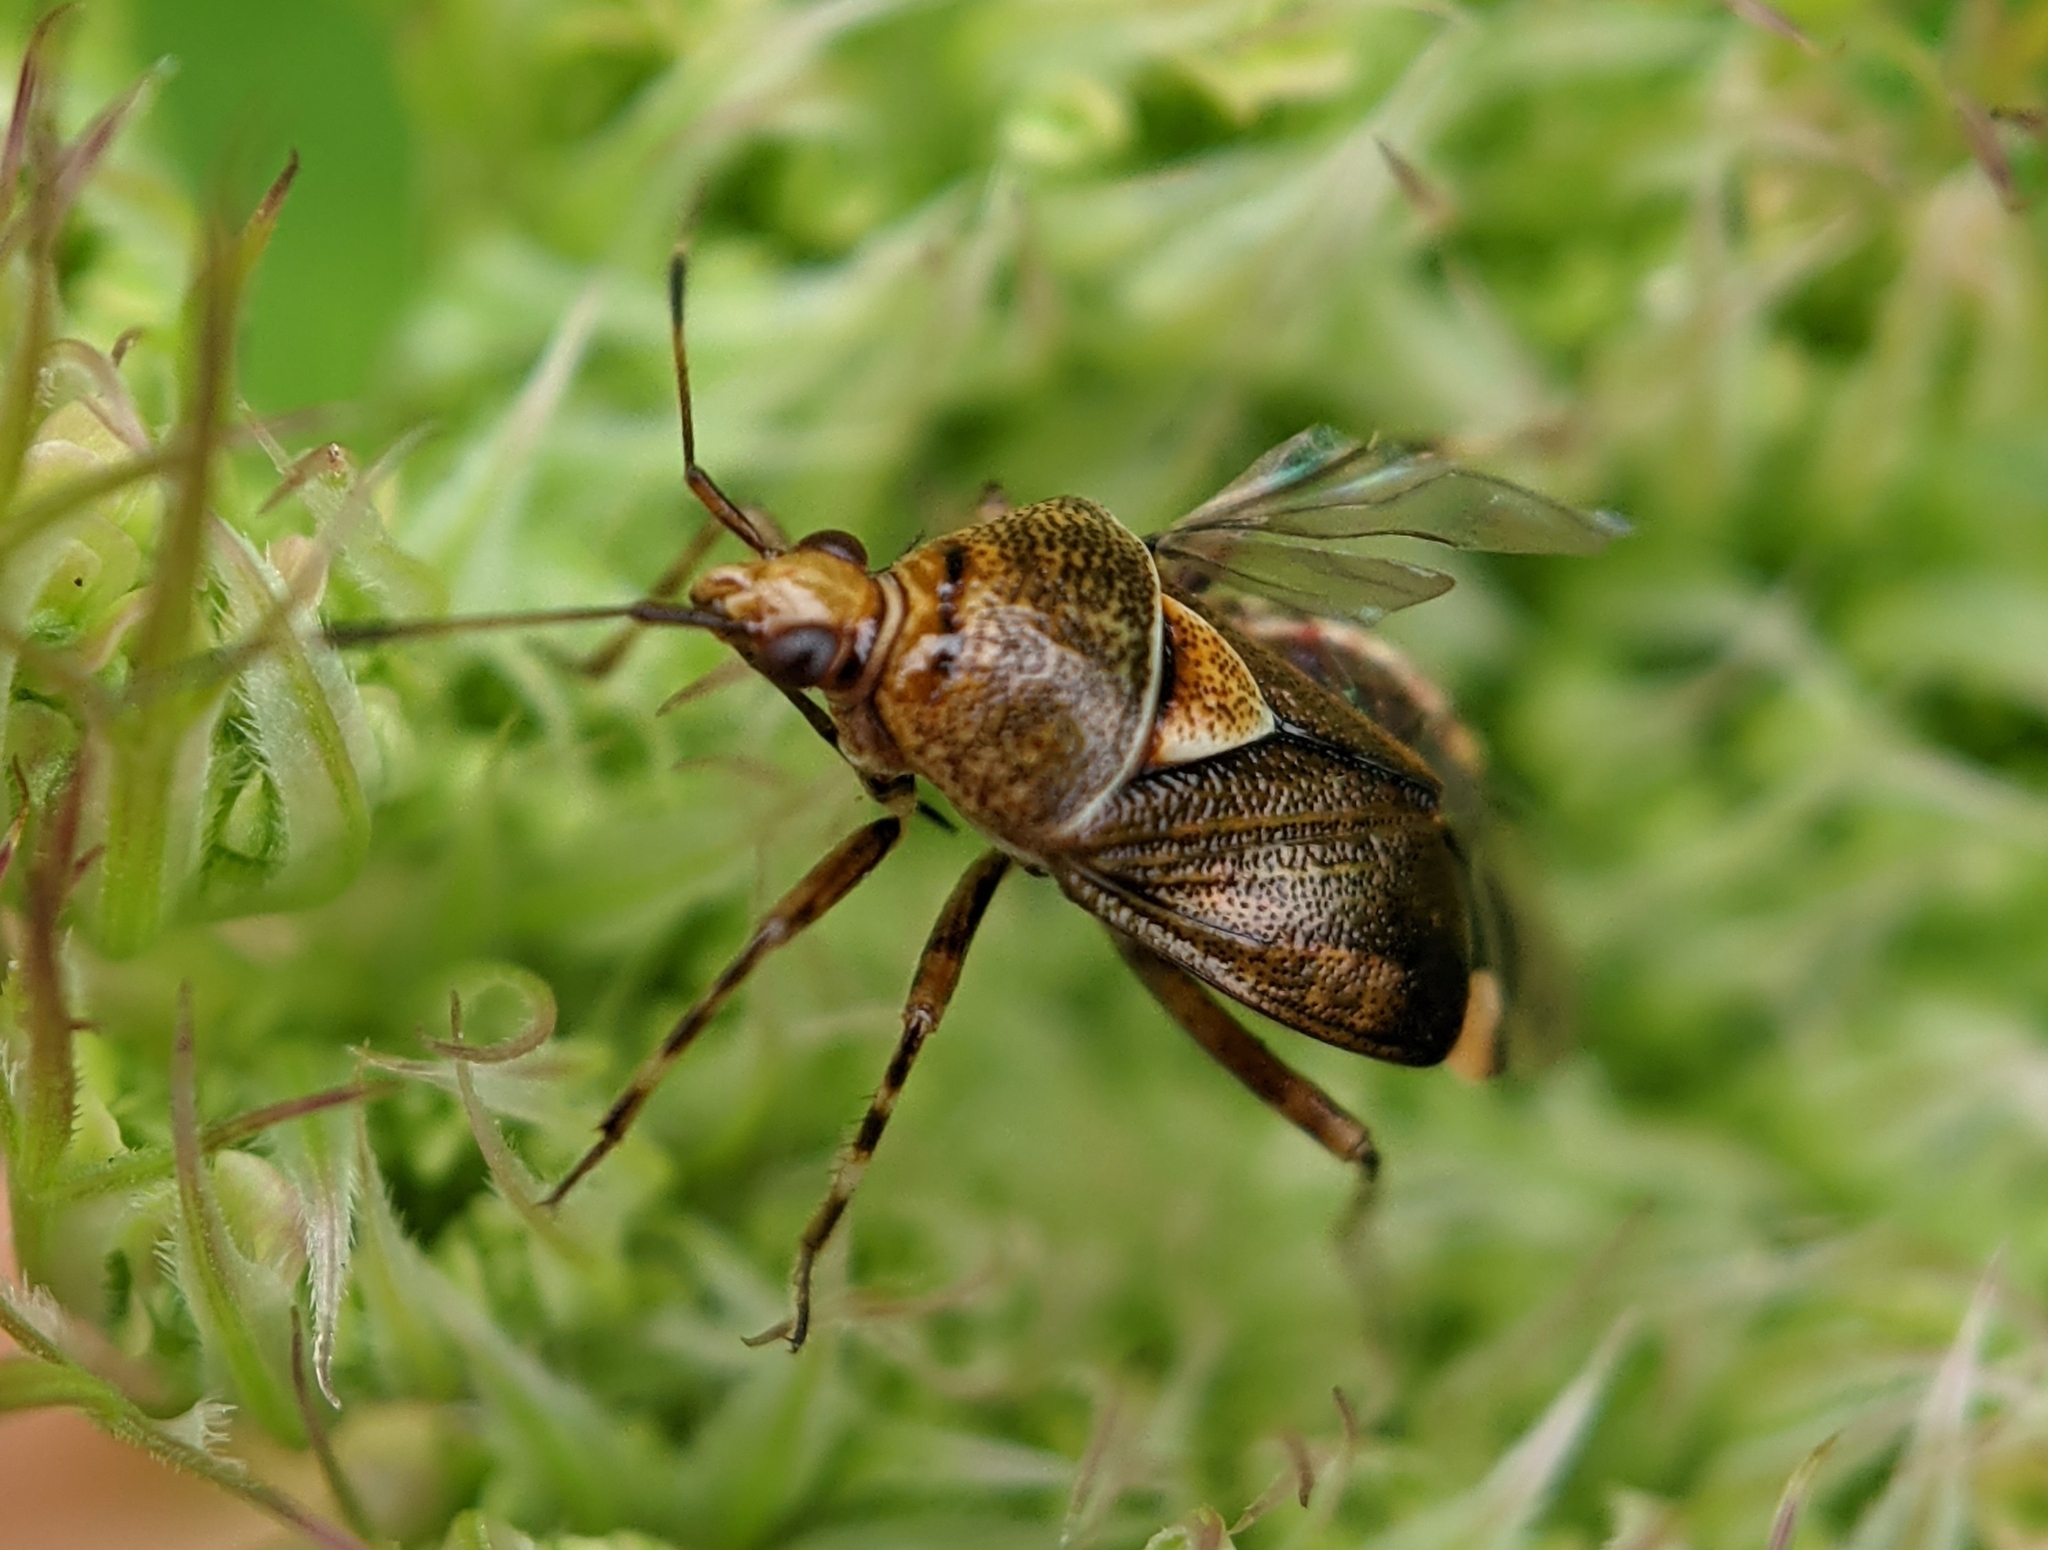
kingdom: Animalia
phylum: Arthropoda
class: Insecta
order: Hemiptera
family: Miridae
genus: Deraeocoris
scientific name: Deraeocoris flavilinea
